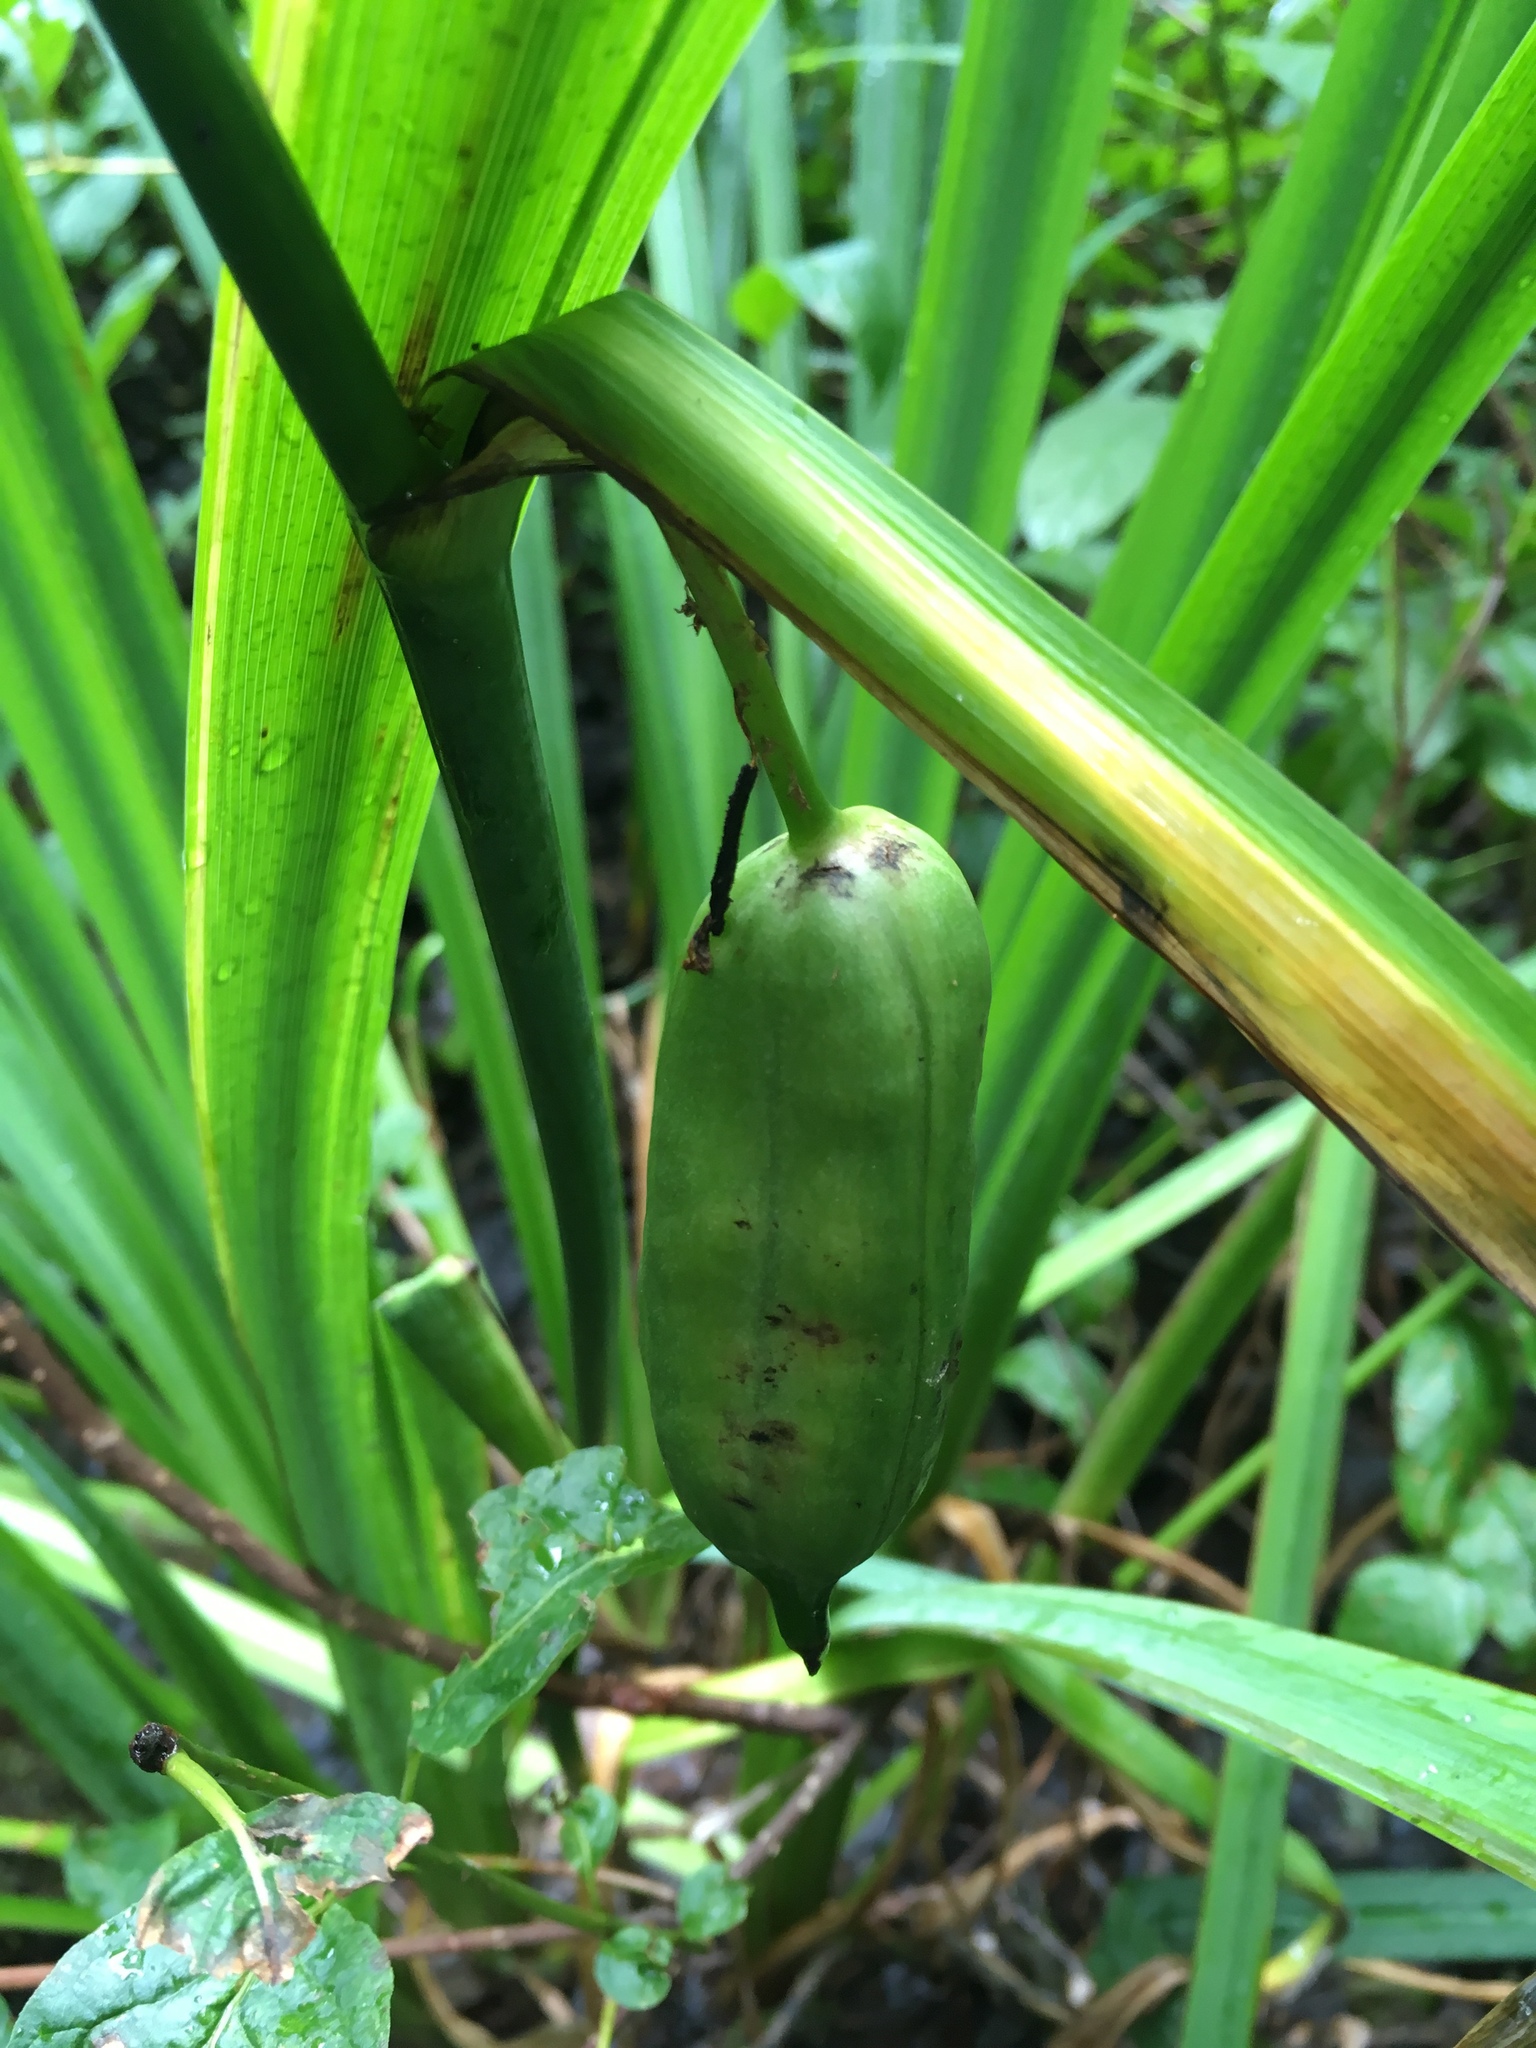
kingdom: Plantae
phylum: Tracheophyta
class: Liliopsida
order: Asparagales
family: Iridaceae
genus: Iris
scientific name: Iris pseudacorus
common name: Yellow flag
